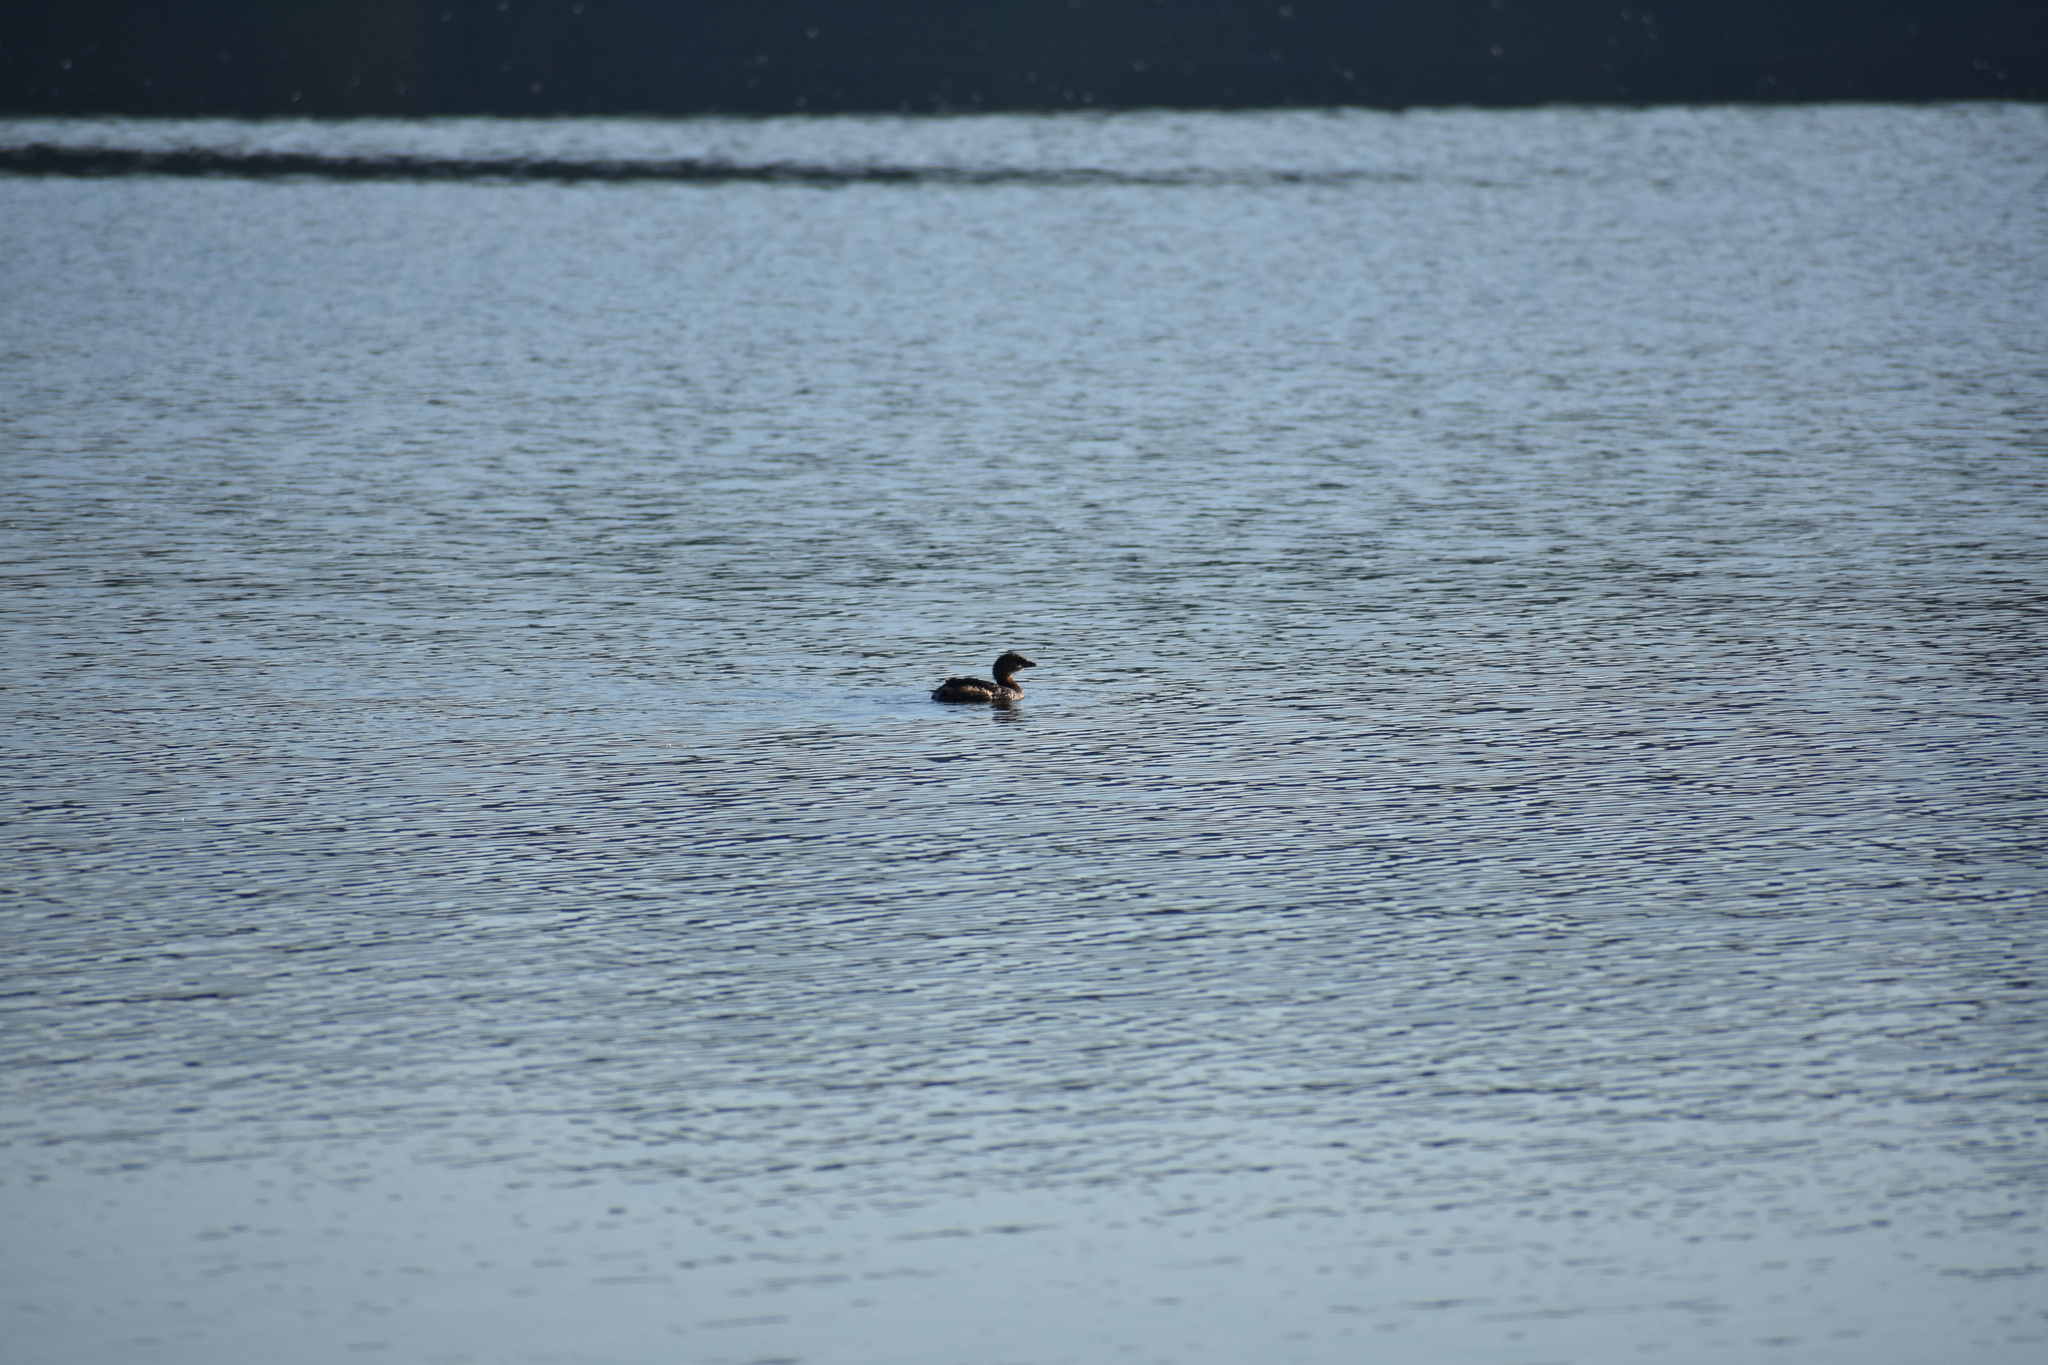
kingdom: Animalia
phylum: Chordata
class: Aves
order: Podicipediformes
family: Podicipedidae
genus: Podilymbus
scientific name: Podilymbus podiceps
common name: Pied-billed grebe
